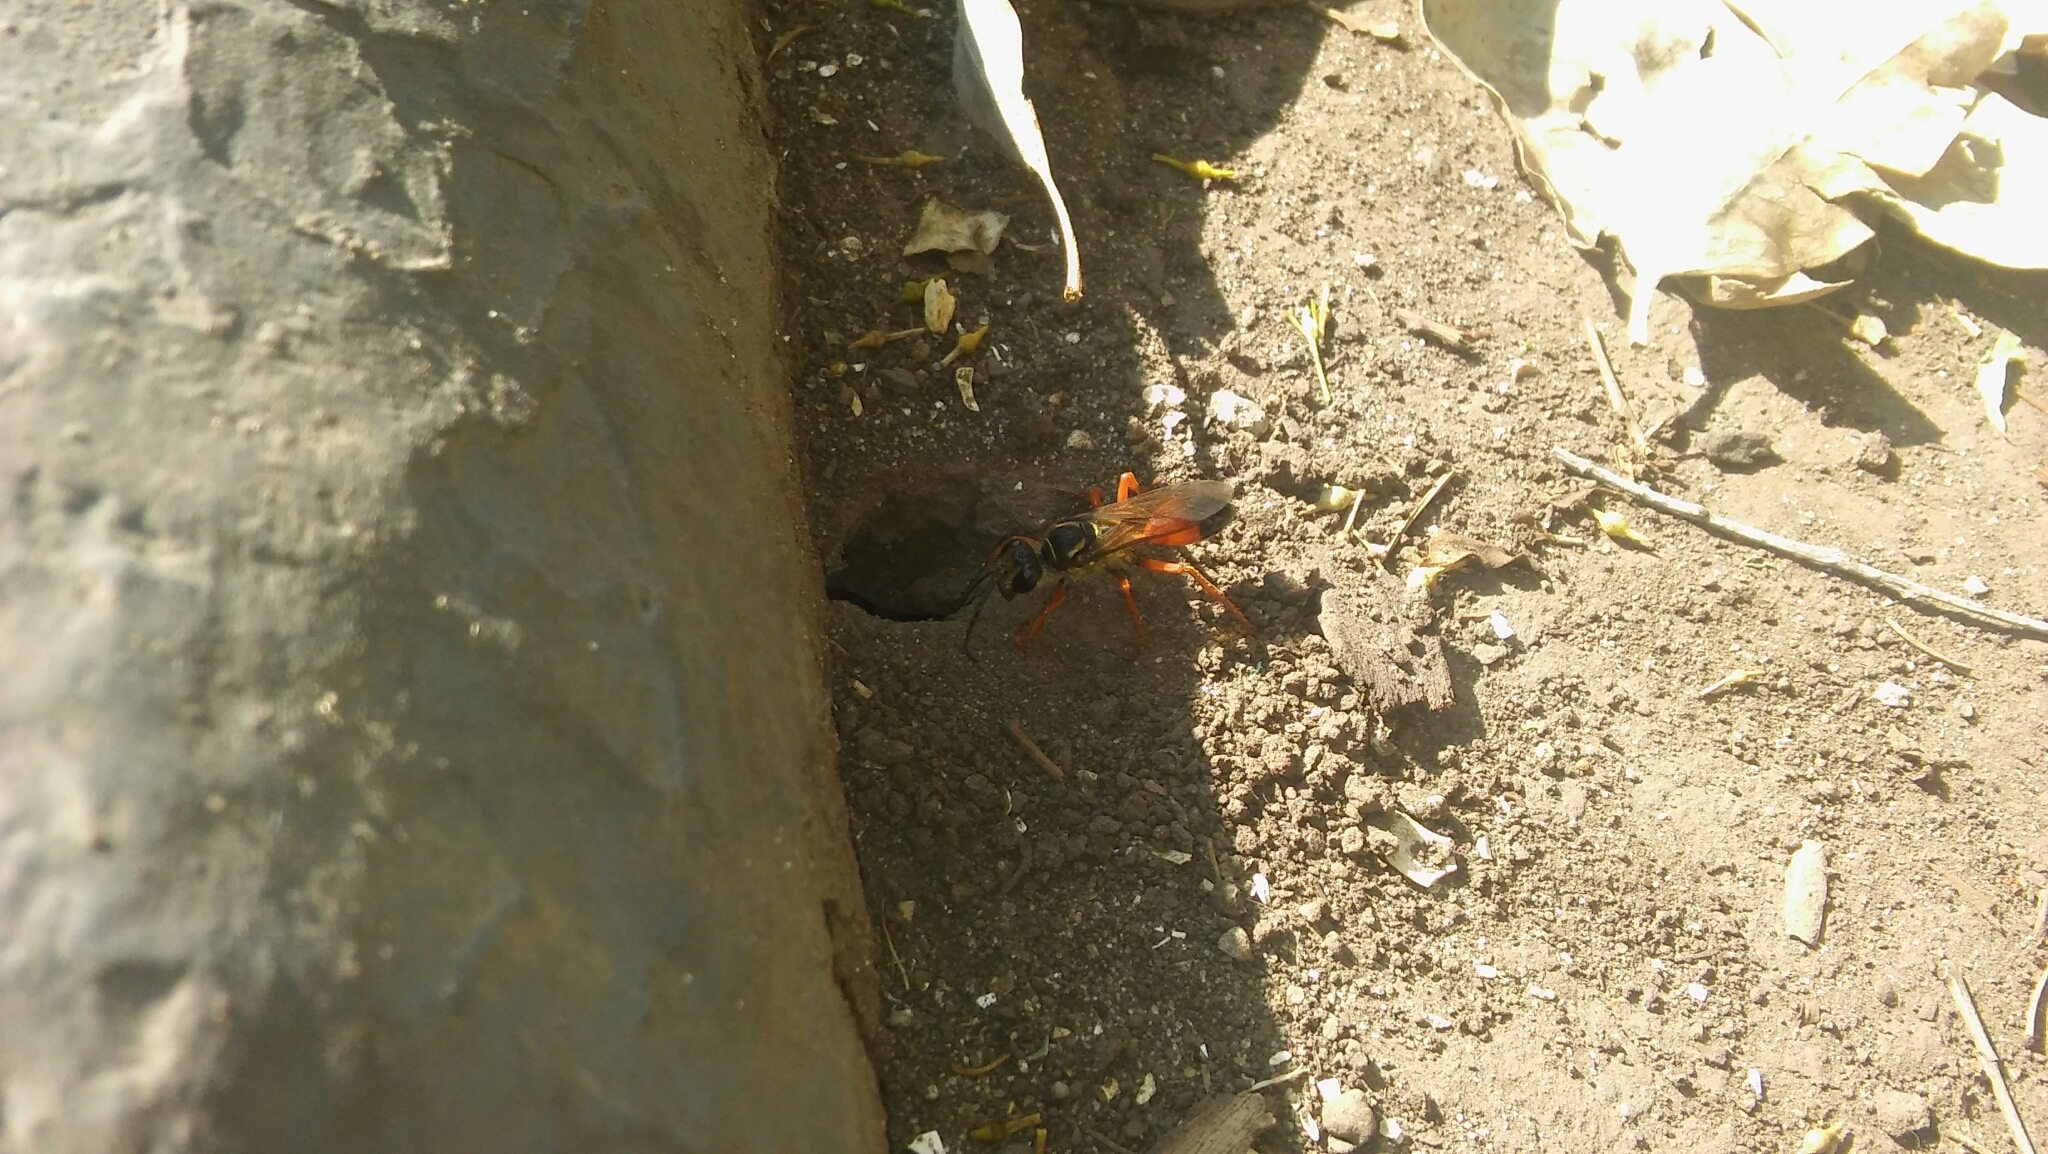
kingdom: Animalia
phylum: Arthropoda
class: Insecta
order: Hymenoptera
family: Sphecidae
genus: Sphex
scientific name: Sphex ichneumoneus
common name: Great golden digger wasp
